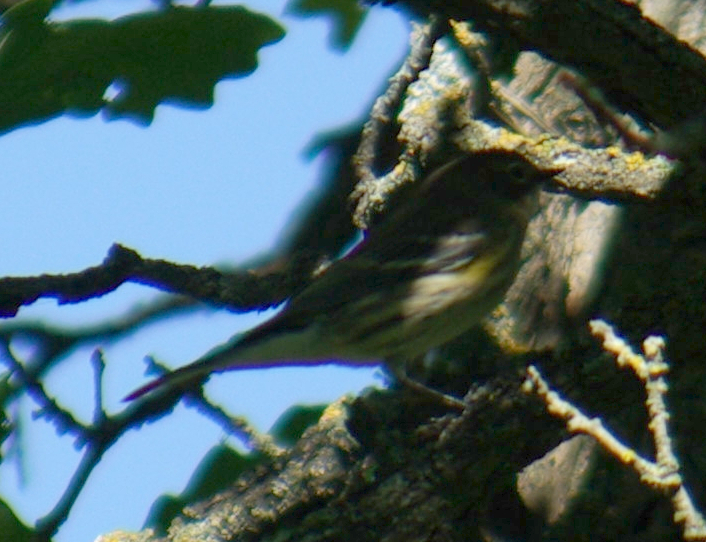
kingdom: Animalia
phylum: Chordata
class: Aves
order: Passeriformes
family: Parulidae
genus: Setophaga
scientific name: Setophaga coronata
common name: Myrtle warbler
